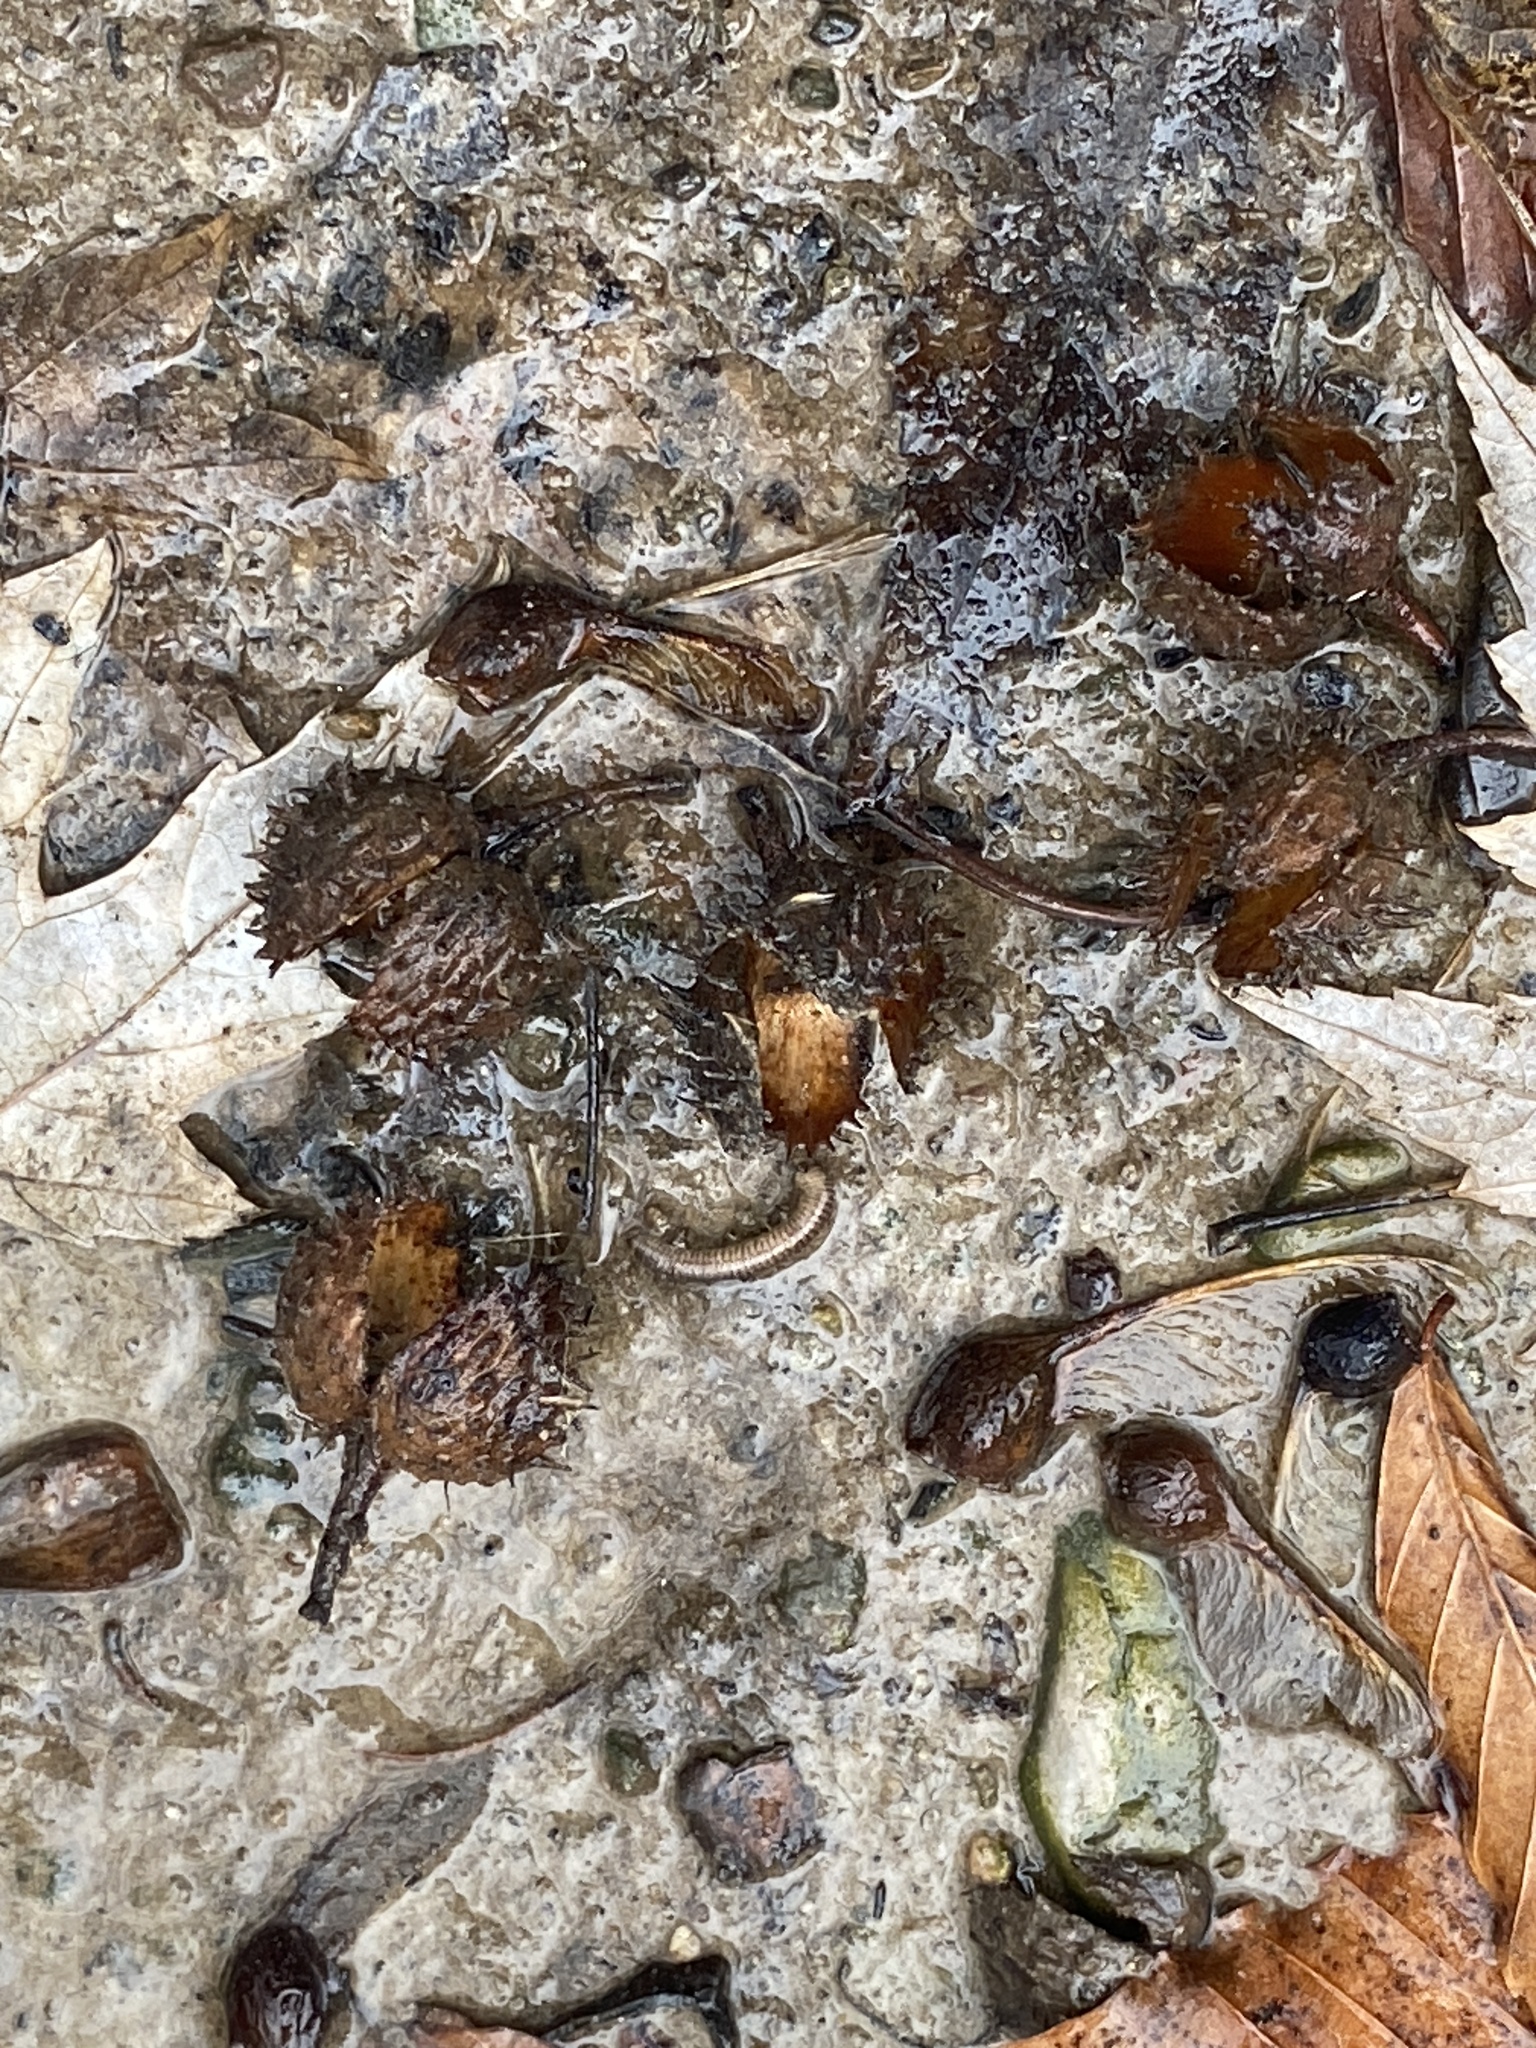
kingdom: Plantae
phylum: Tracheophyta
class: Magnoliopsida
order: Fagales
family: Fagaceae
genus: Fagus
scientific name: Fagus grandifolia
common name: American beech
